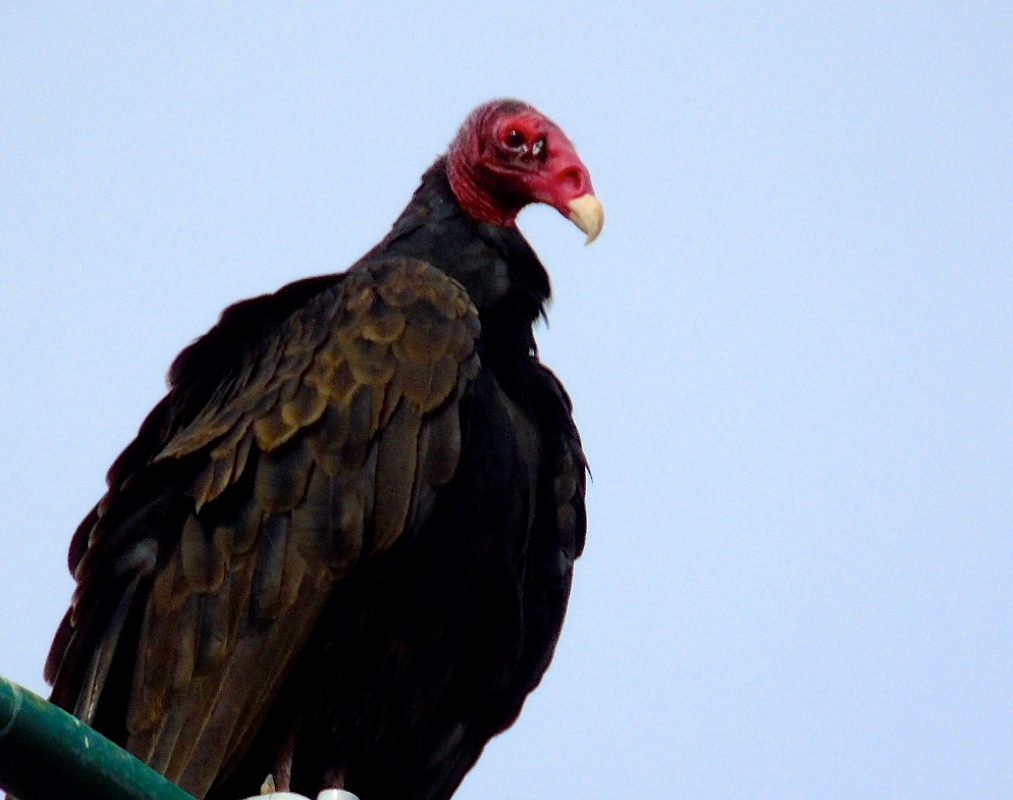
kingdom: Animalia
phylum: Chordata
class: Aves
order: Accipitriformes
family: Cathartidae
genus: Cathartes
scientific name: Cathartes aura
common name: Turkey vulture
